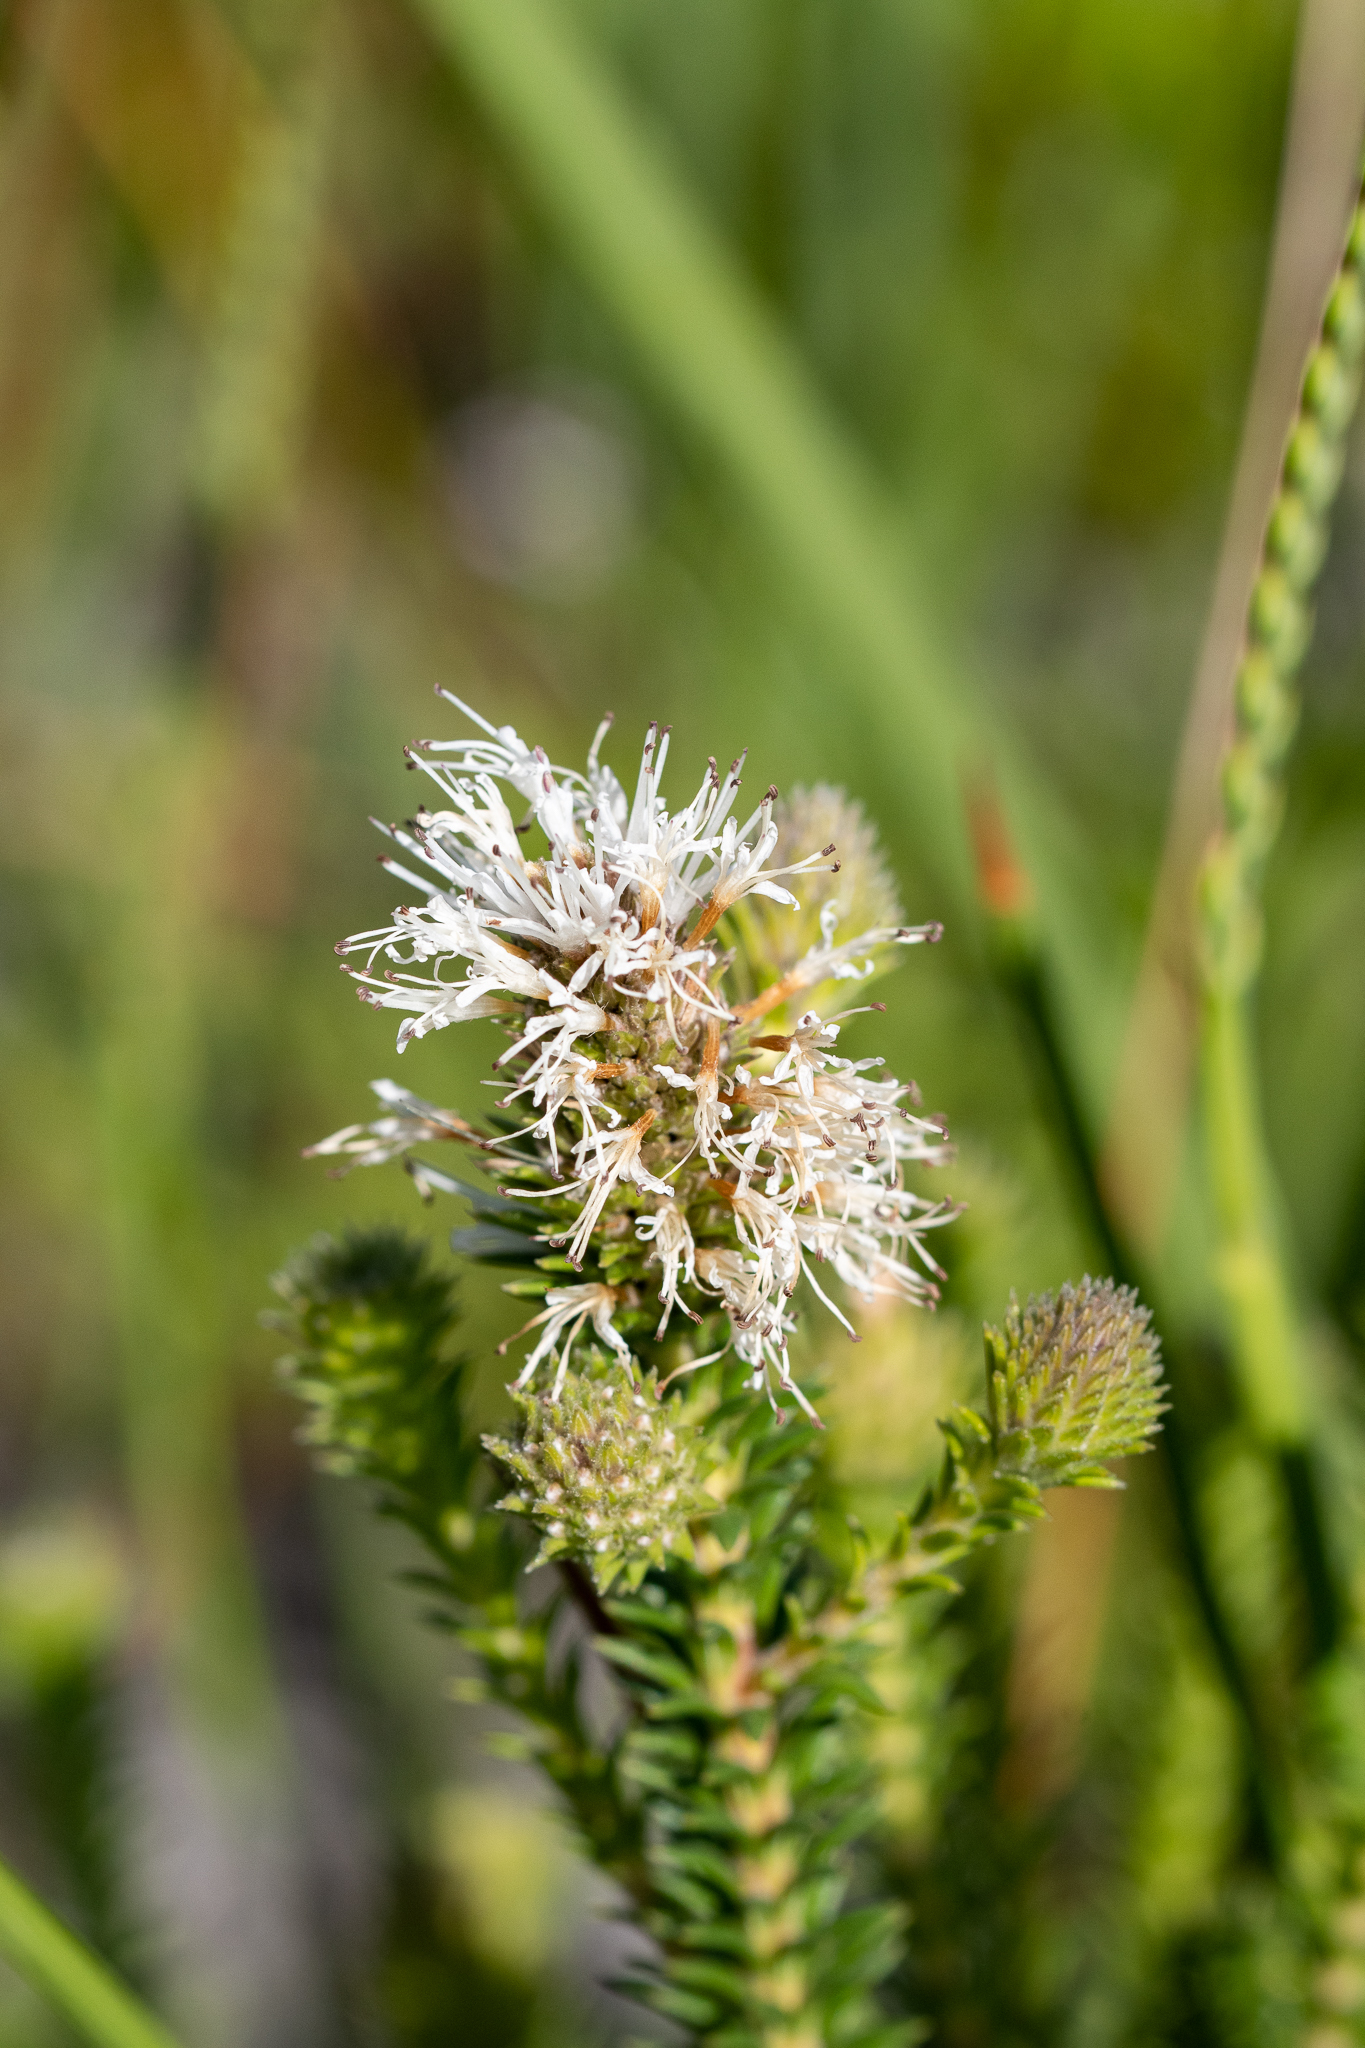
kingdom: Plantae
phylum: Tracheophyta
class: Magnoliopsida
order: Lamiales
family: Stilbaceae
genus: Stilbe
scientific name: Stilbe albiflora
